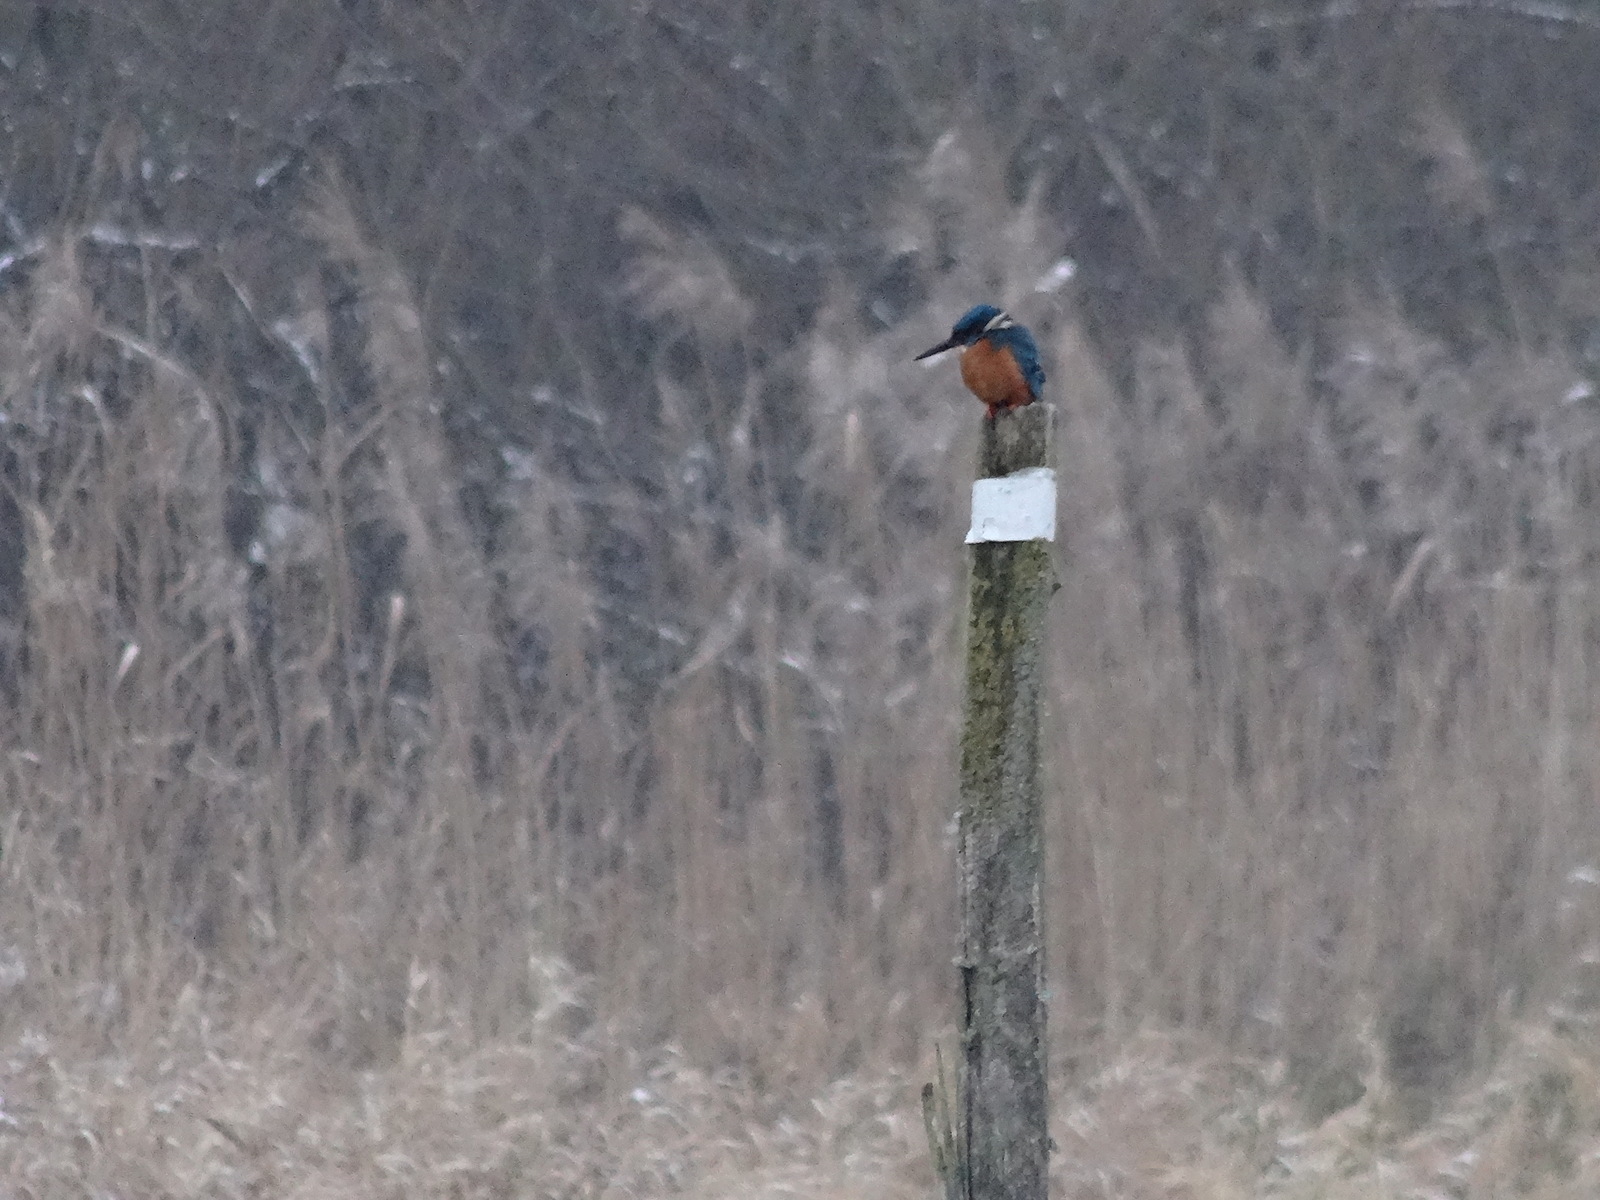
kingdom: Animalia
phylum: Chordata
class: Aves
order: Coraciiformes
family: Alcedinidae
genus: Alcedo
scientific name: Alcedo atthis
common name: Common kingfisher
